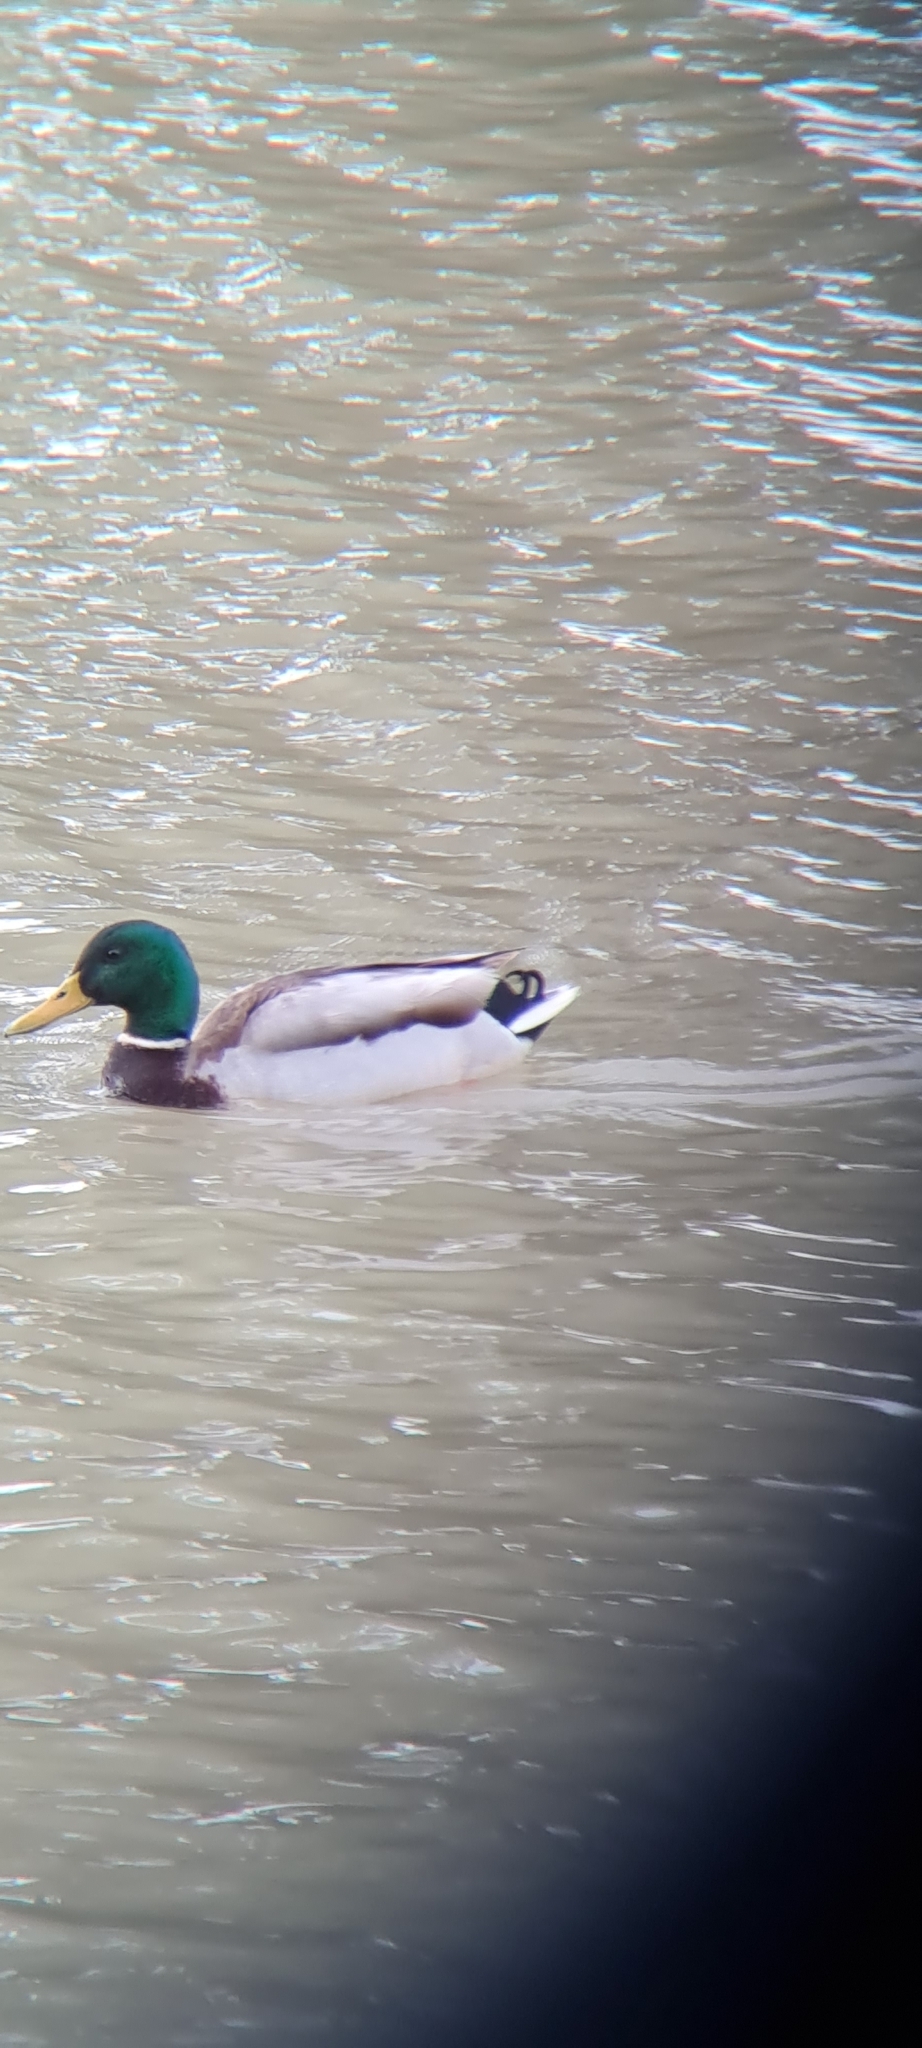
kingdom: Animalia
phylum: Chordata
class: Aves
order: Anseriformes
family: Anatidae
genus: Anas
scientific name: Anas platyrhynchos
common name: Mallard
